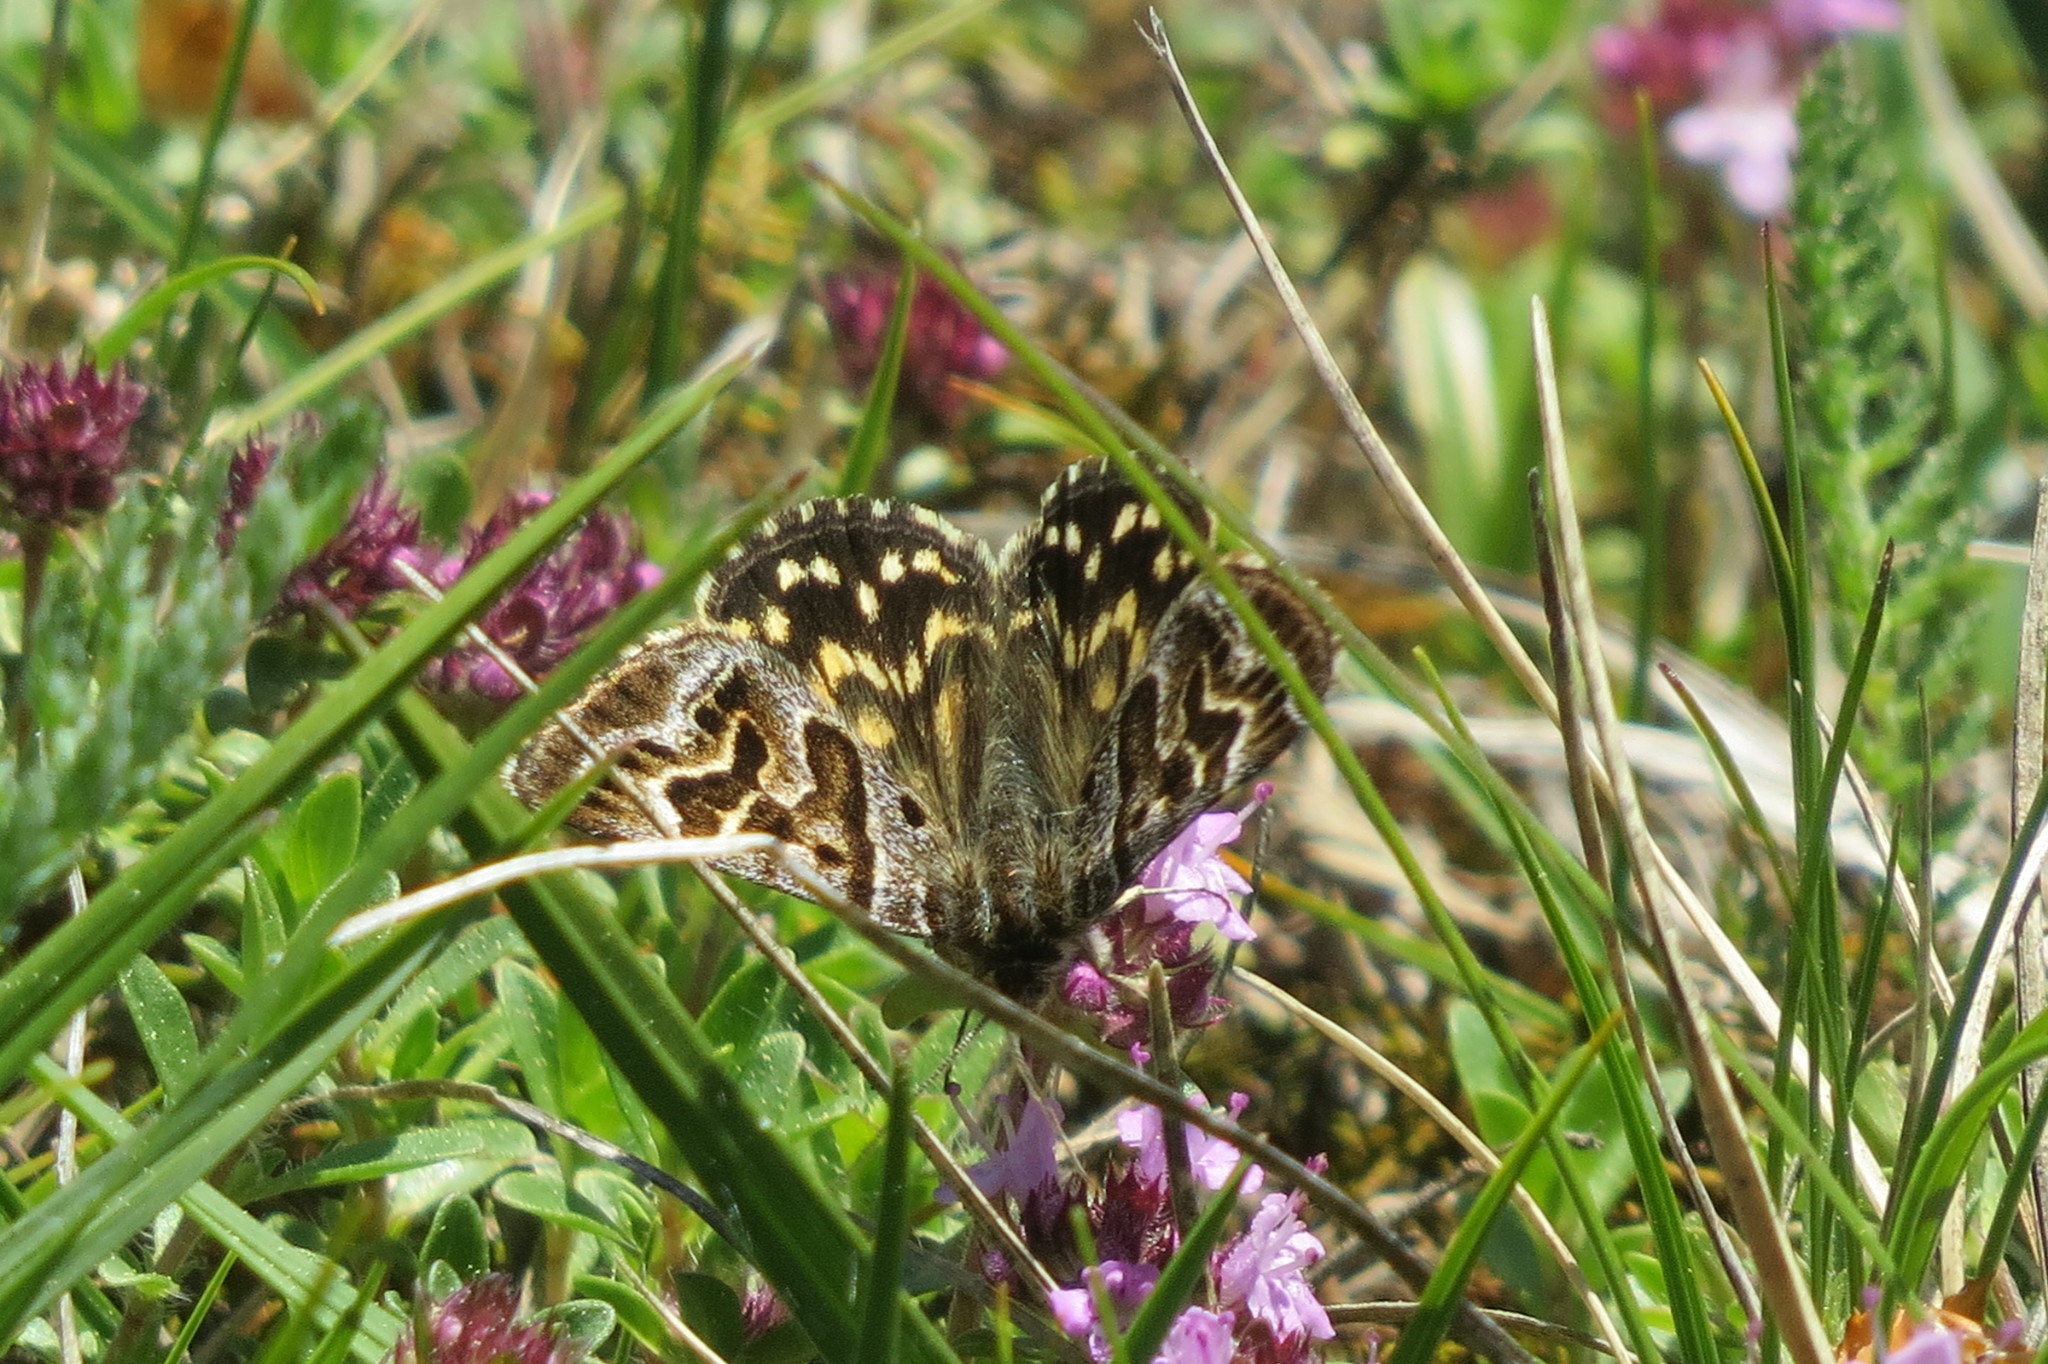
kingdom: Animalia
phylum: Arthropoda
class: Insecta
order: Lepidoptera
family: Erebidae
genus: Callistege
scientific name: Callistege mi
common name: Mother shipton
